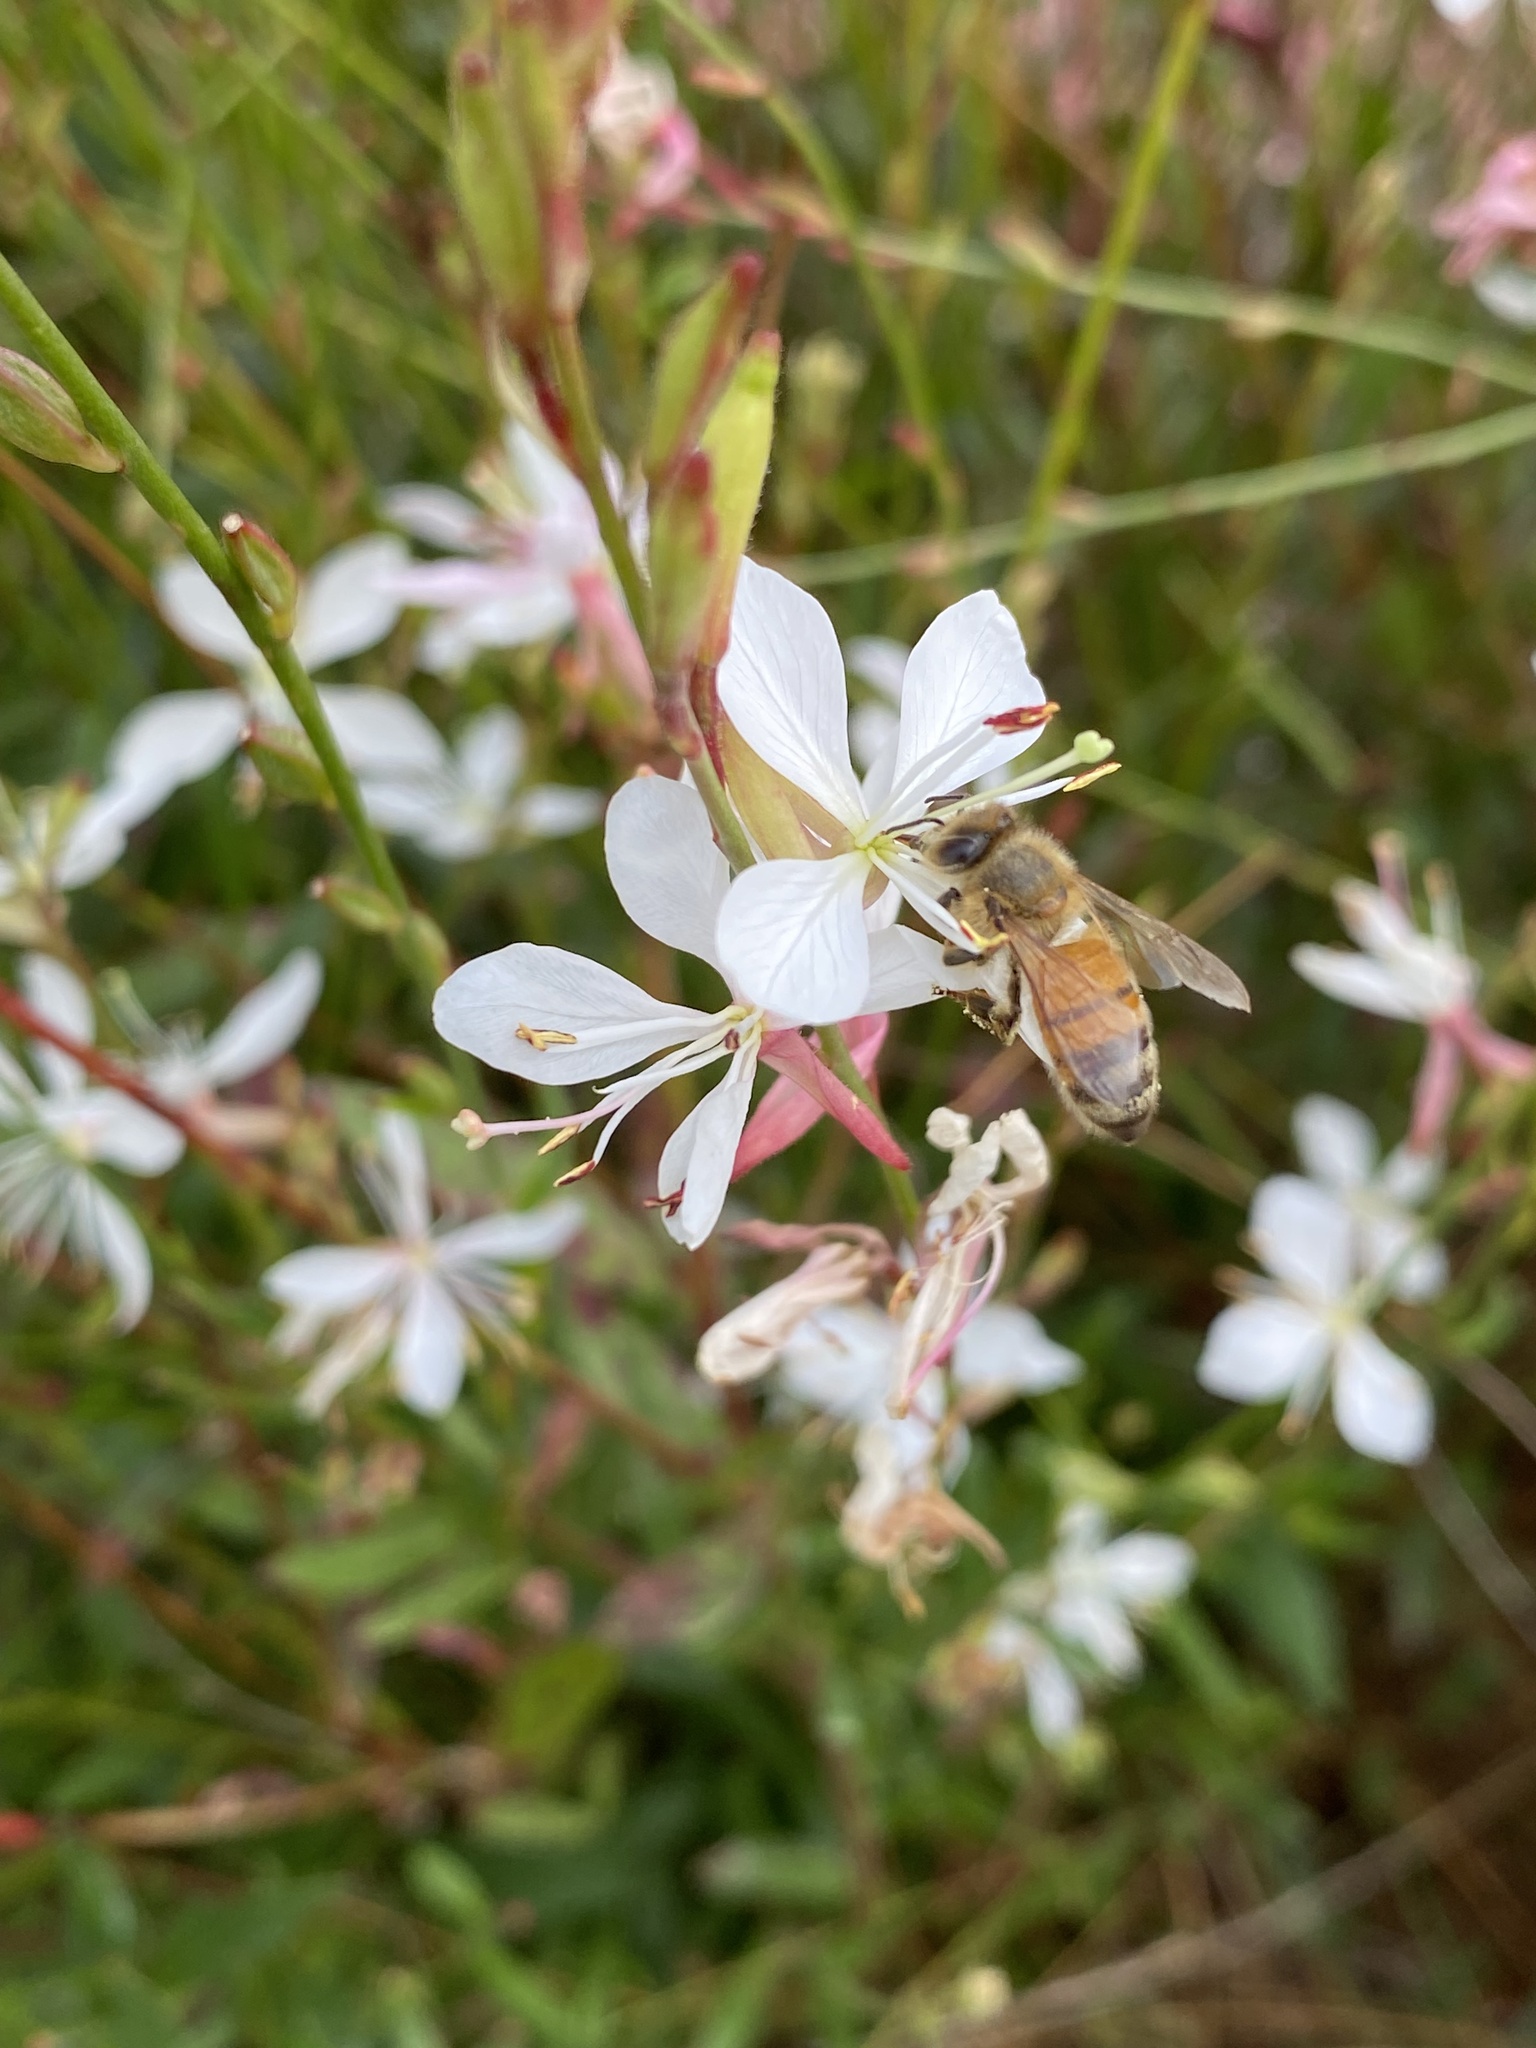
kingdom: Animalia
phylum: Arthropoda
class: Insecta
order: Hymenoptera
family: Apidae
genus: Apis
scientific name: Apis mellifera
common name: Honey bee
